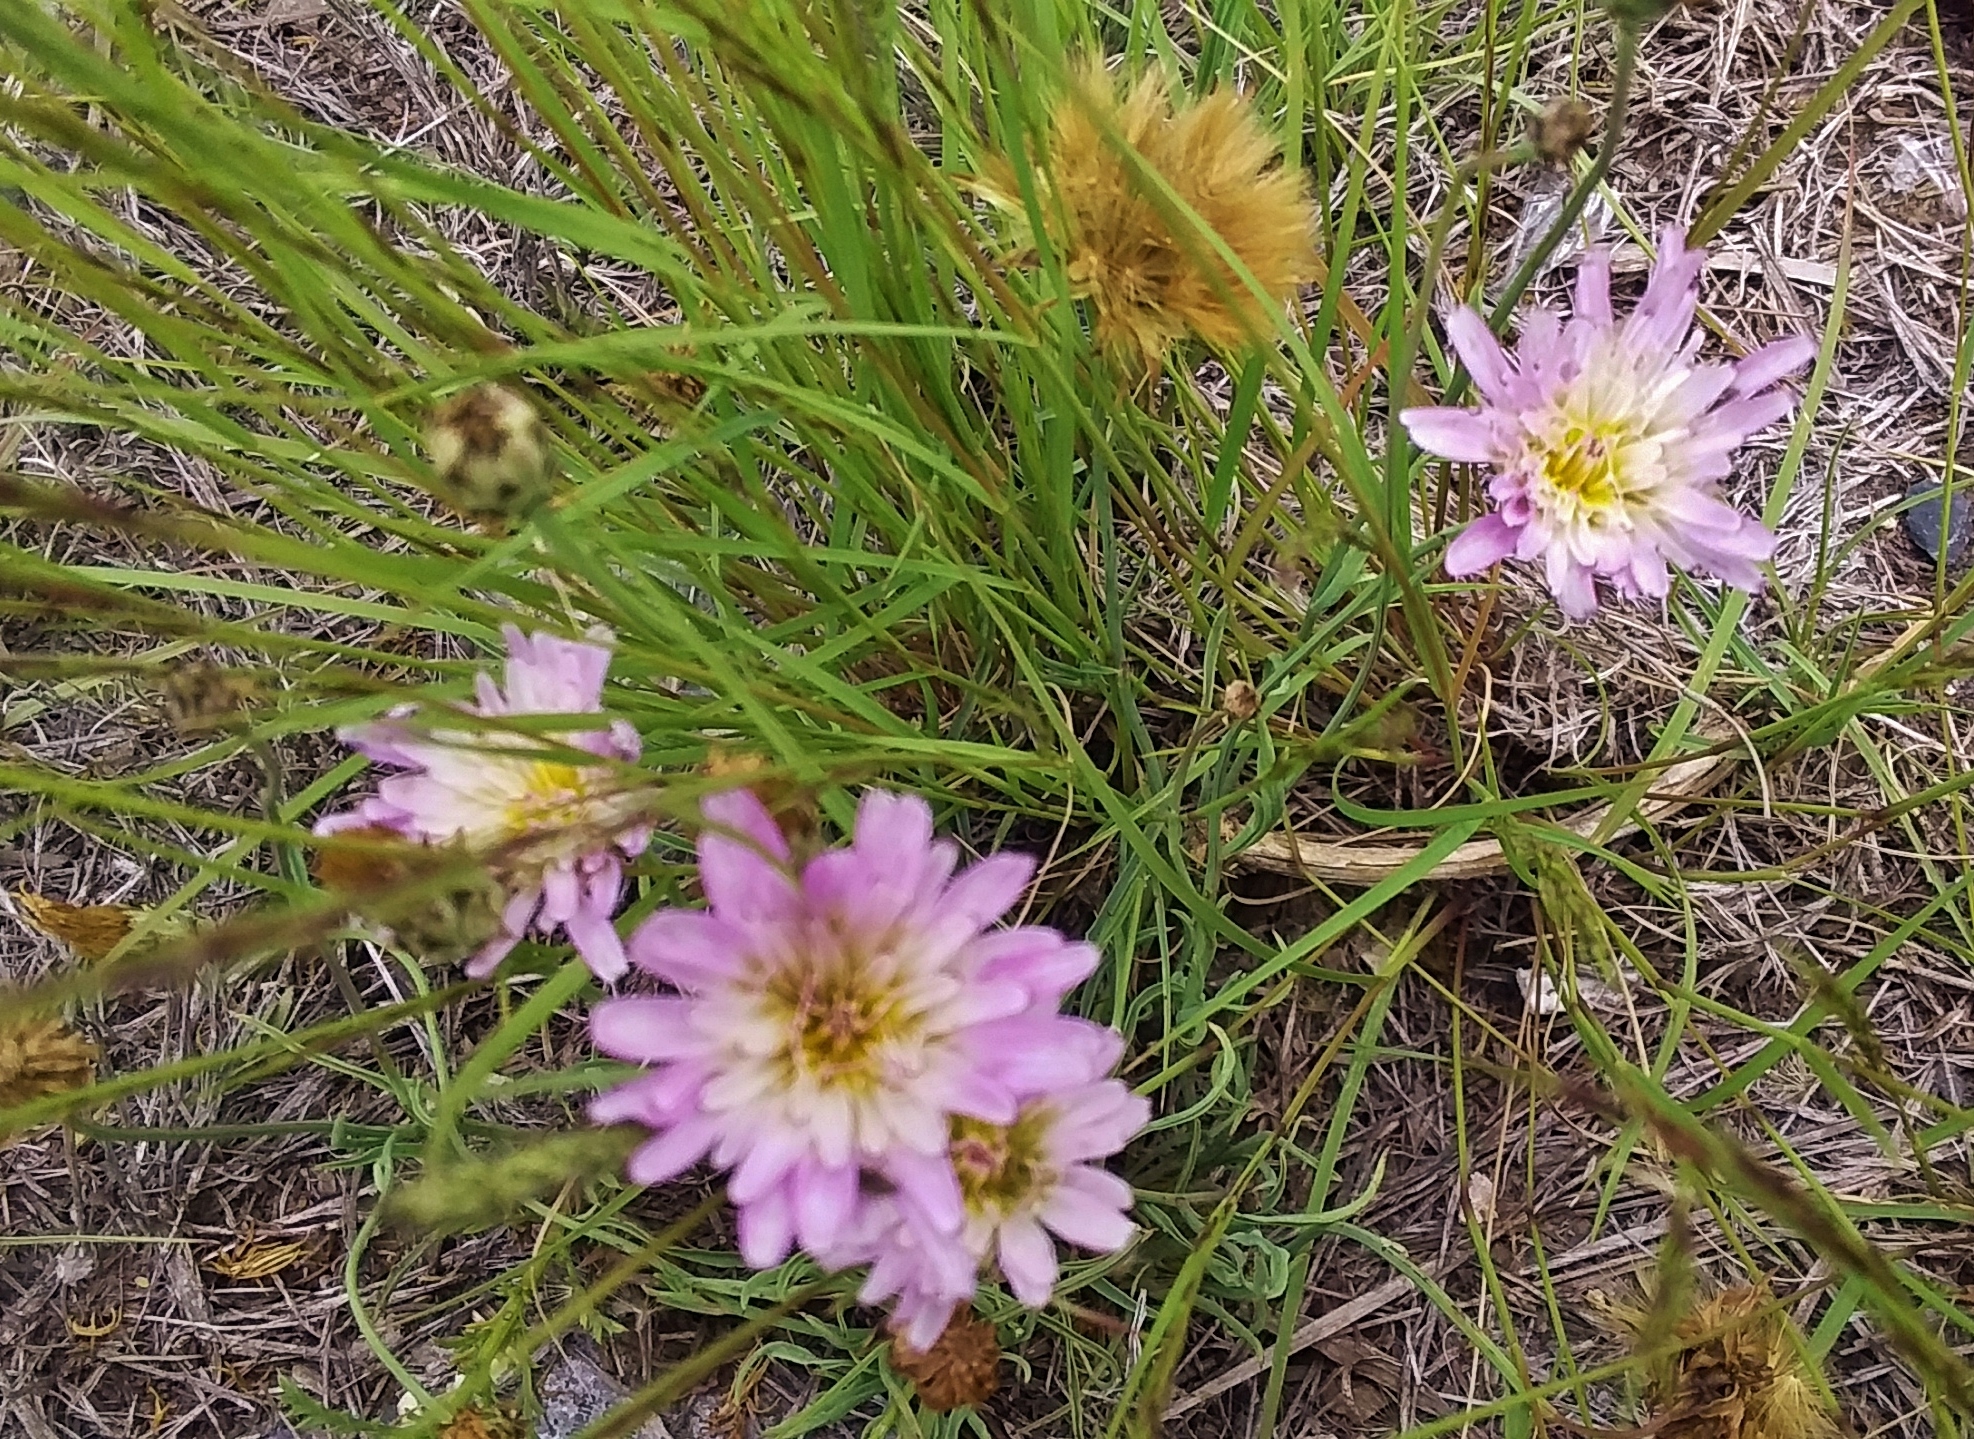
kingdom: Plantae
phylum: Tracheophyta
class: Magnoliopsida
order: Asterales
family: Asteraceae
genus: Pinaropappus
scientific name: Pinaropappus roseus
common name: Rock-lettuce
